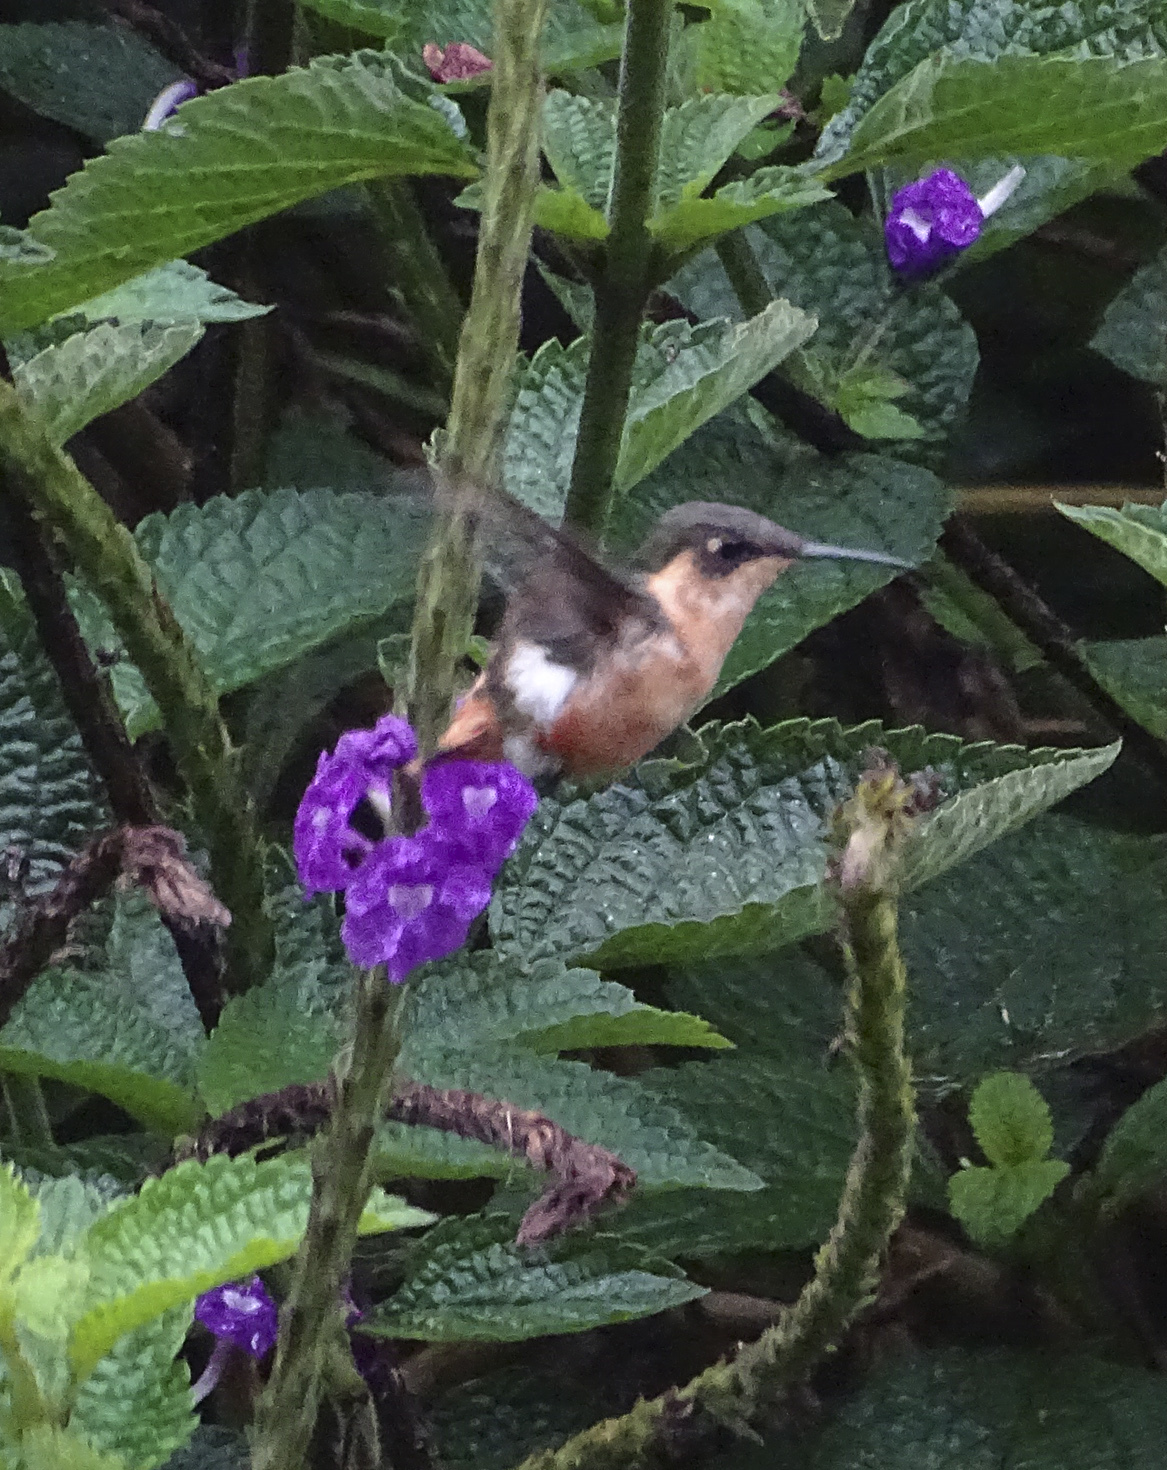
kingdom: Animalia
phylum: Chordata
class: Aves
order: Apodiformes
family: Trochilidae
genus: Chaetocercus
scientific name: Chaetocercus heliodor
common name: Gorgeted woodstar
